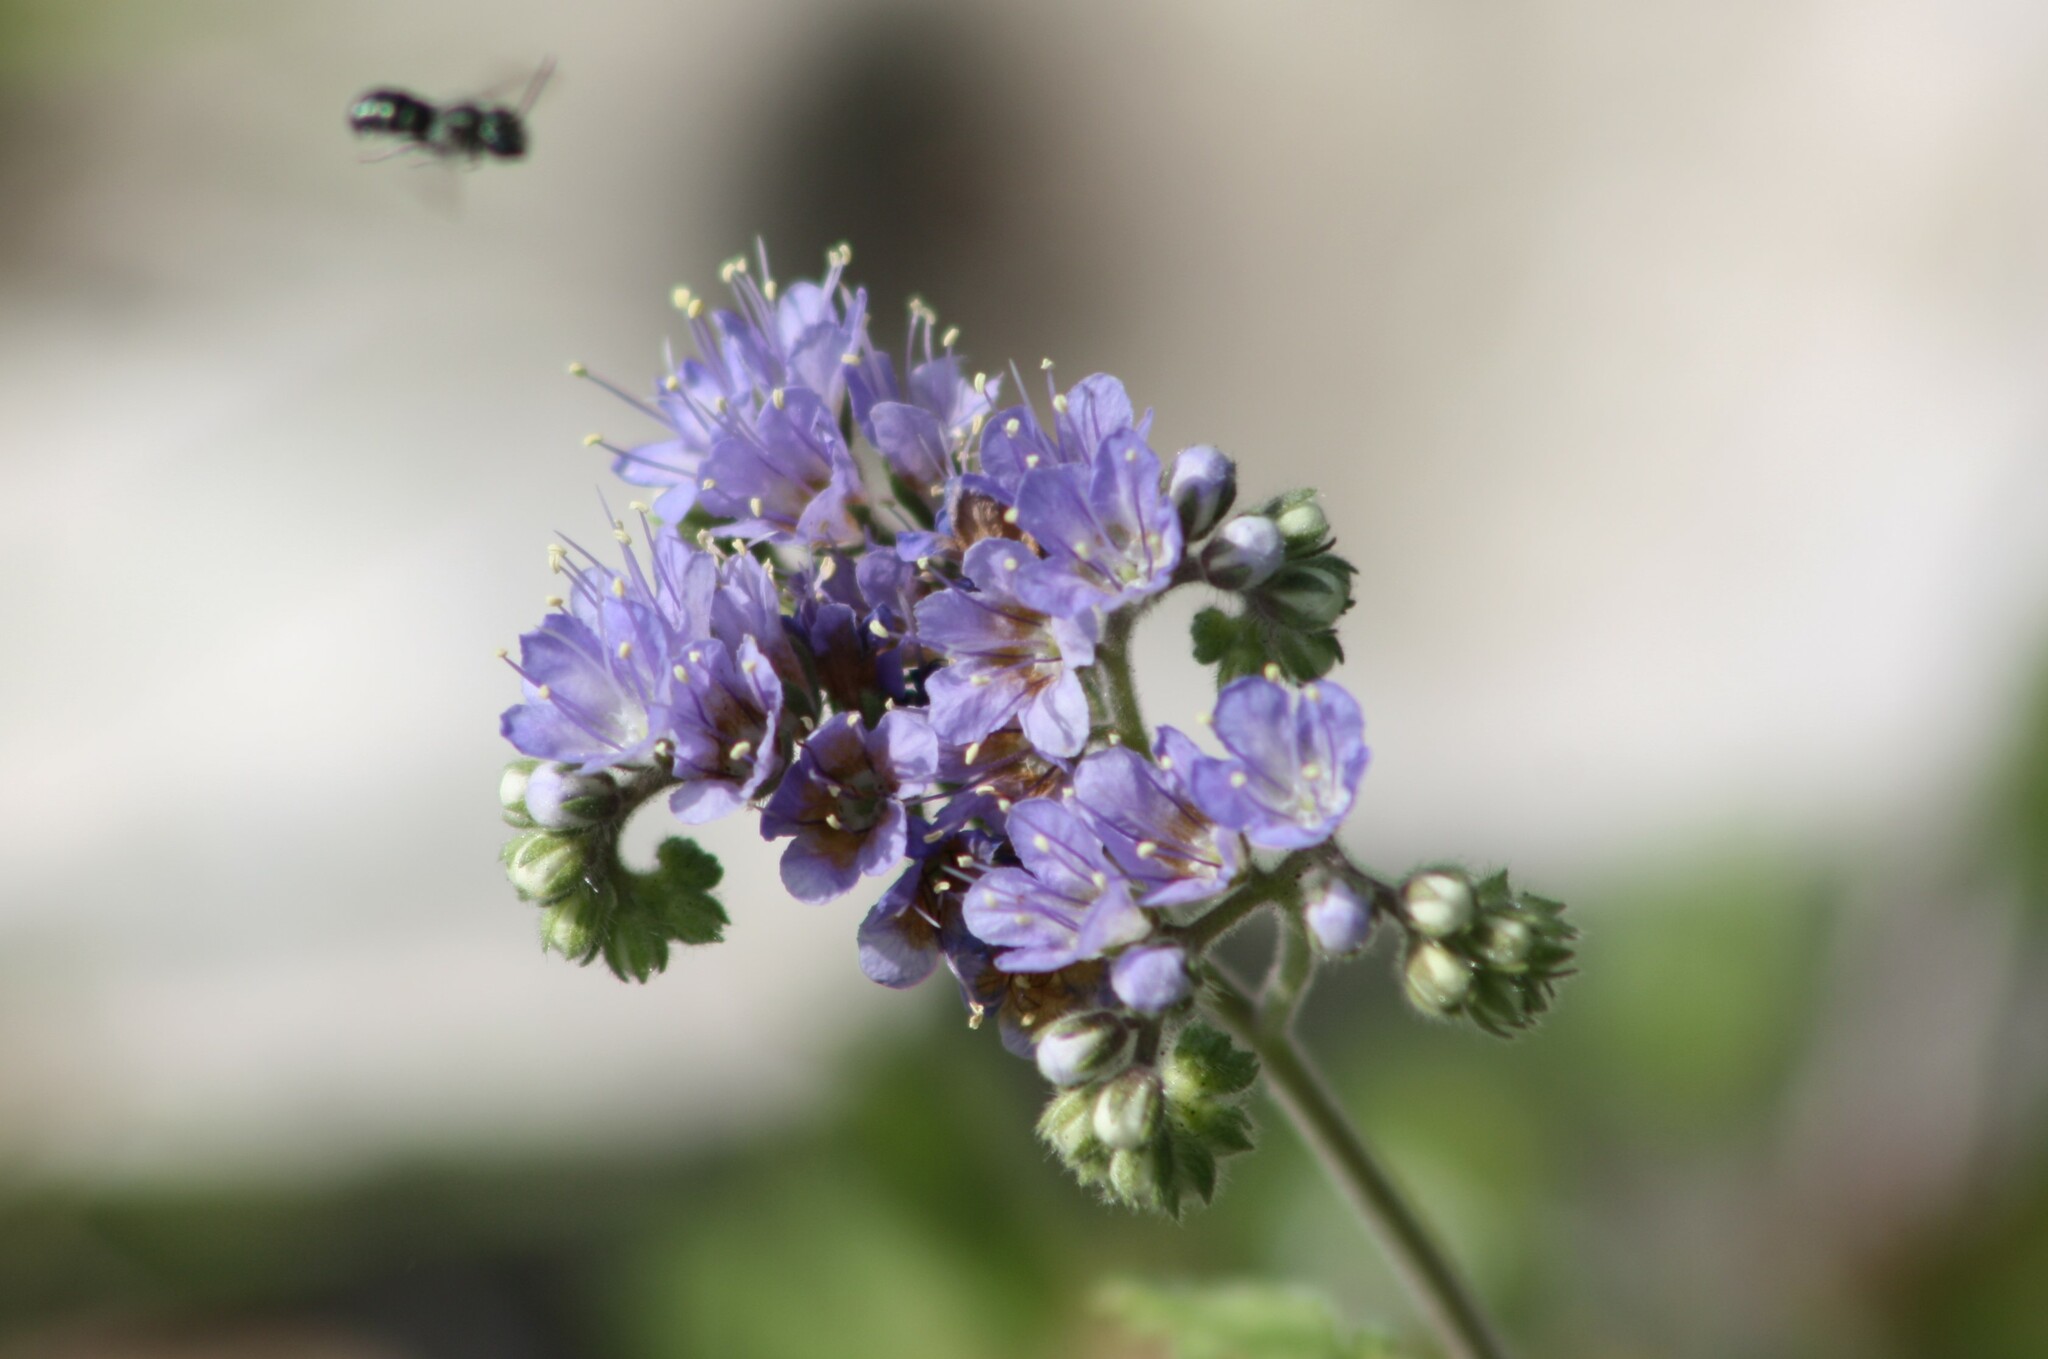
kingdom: Plantae
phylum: Tracheophyta
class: Magnoliopsida
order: Boraginales
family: Hydrophyllaceae
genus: Phacelia
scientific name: Phacelia congesta
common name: Blue curls
